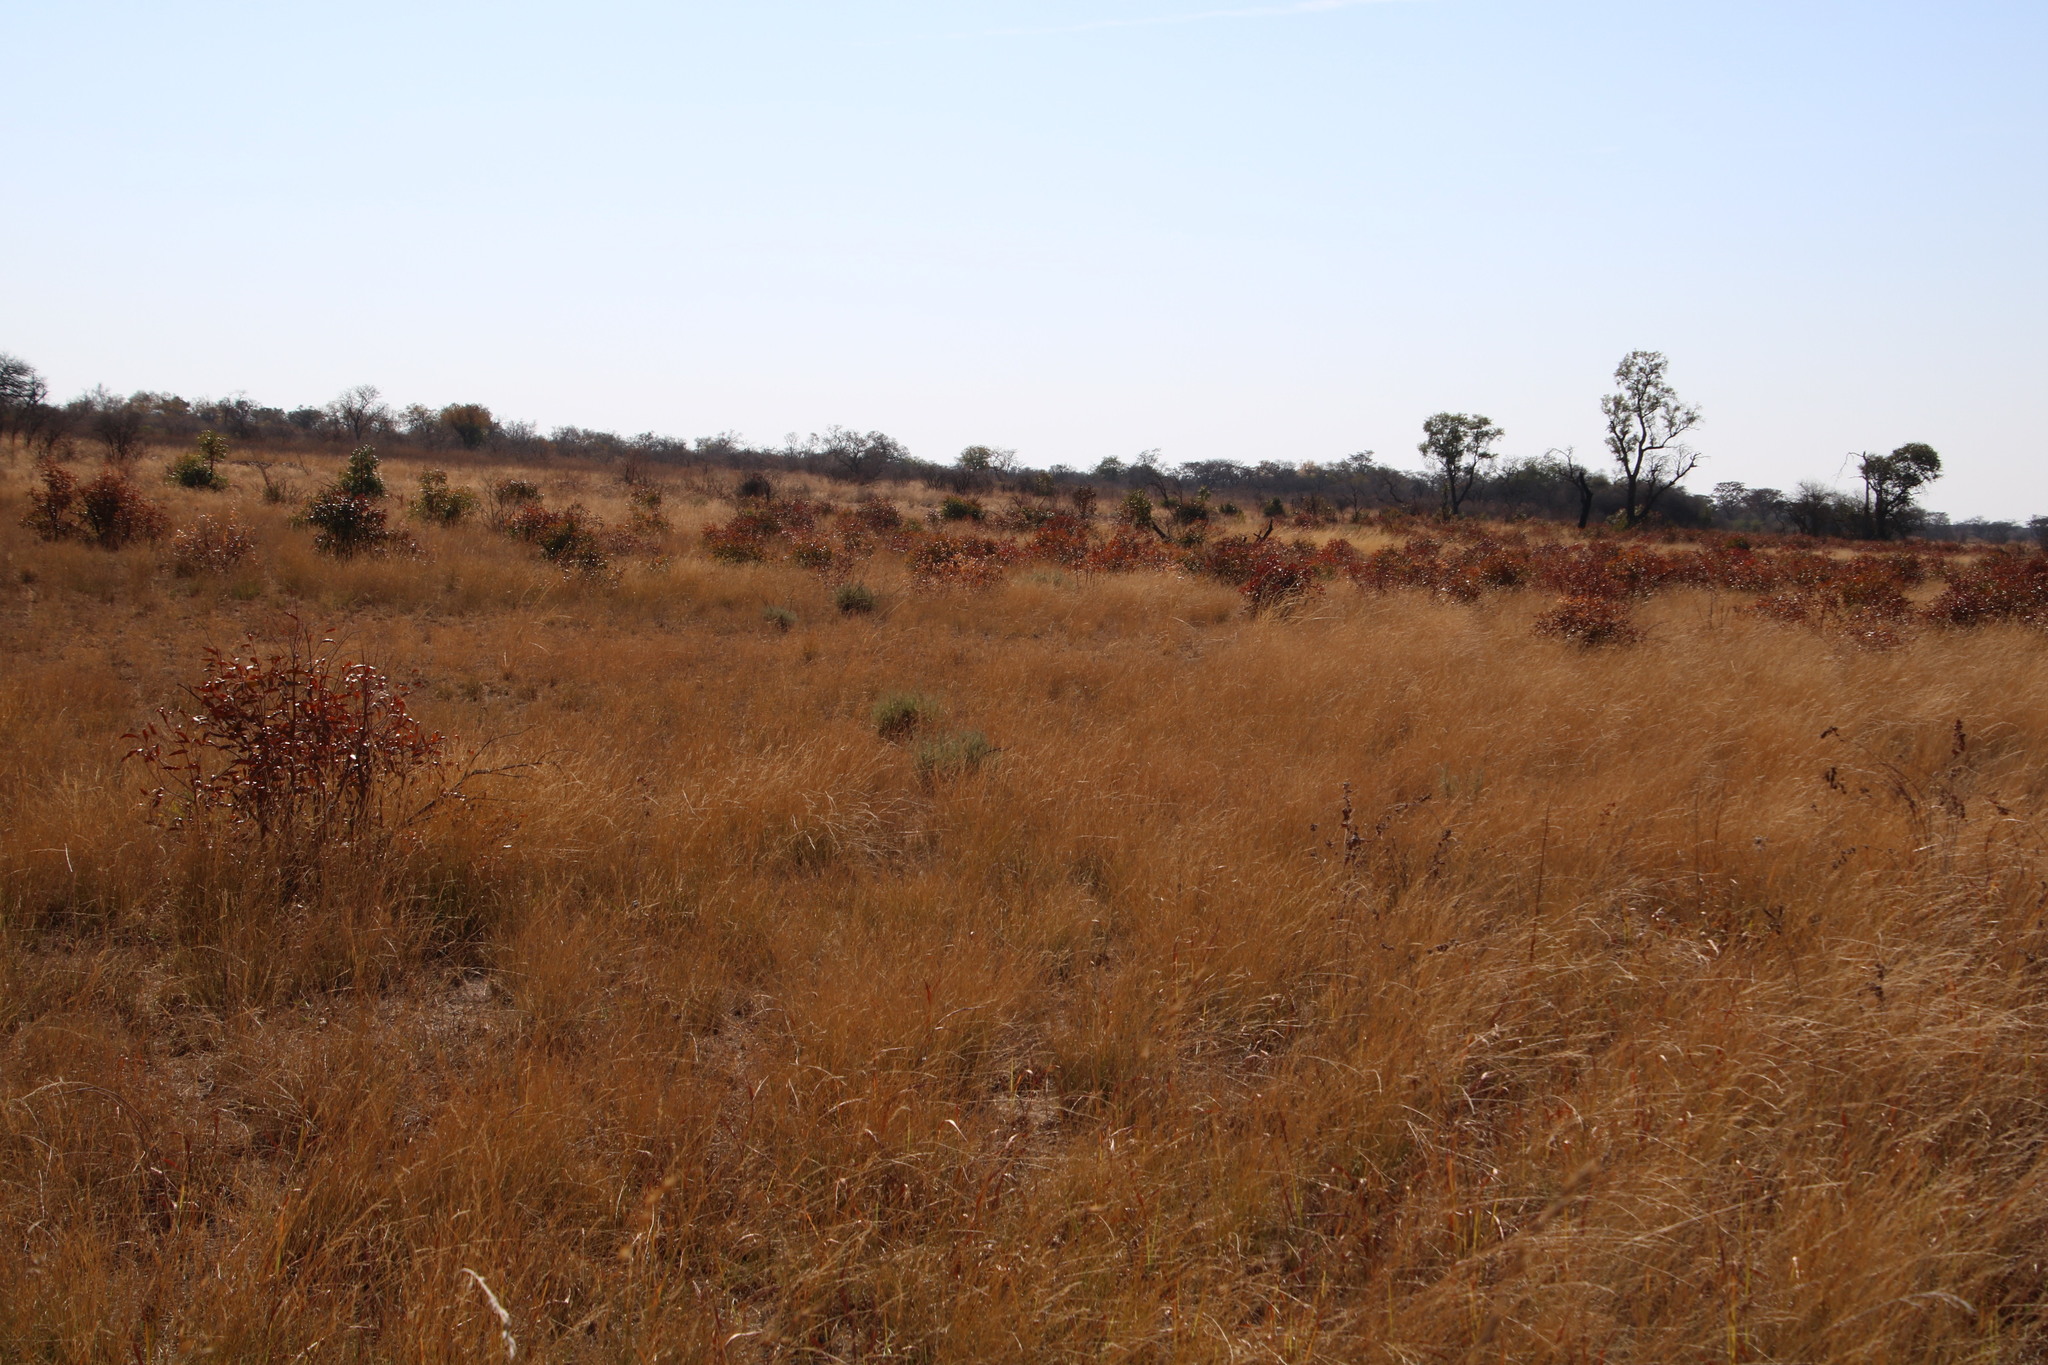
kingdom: Plantae
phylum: Tracheophyta
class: Magnoliopsida
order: Proteales
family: Proteaceae
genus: Faurea
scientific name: Faurea saligna
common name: African bean
